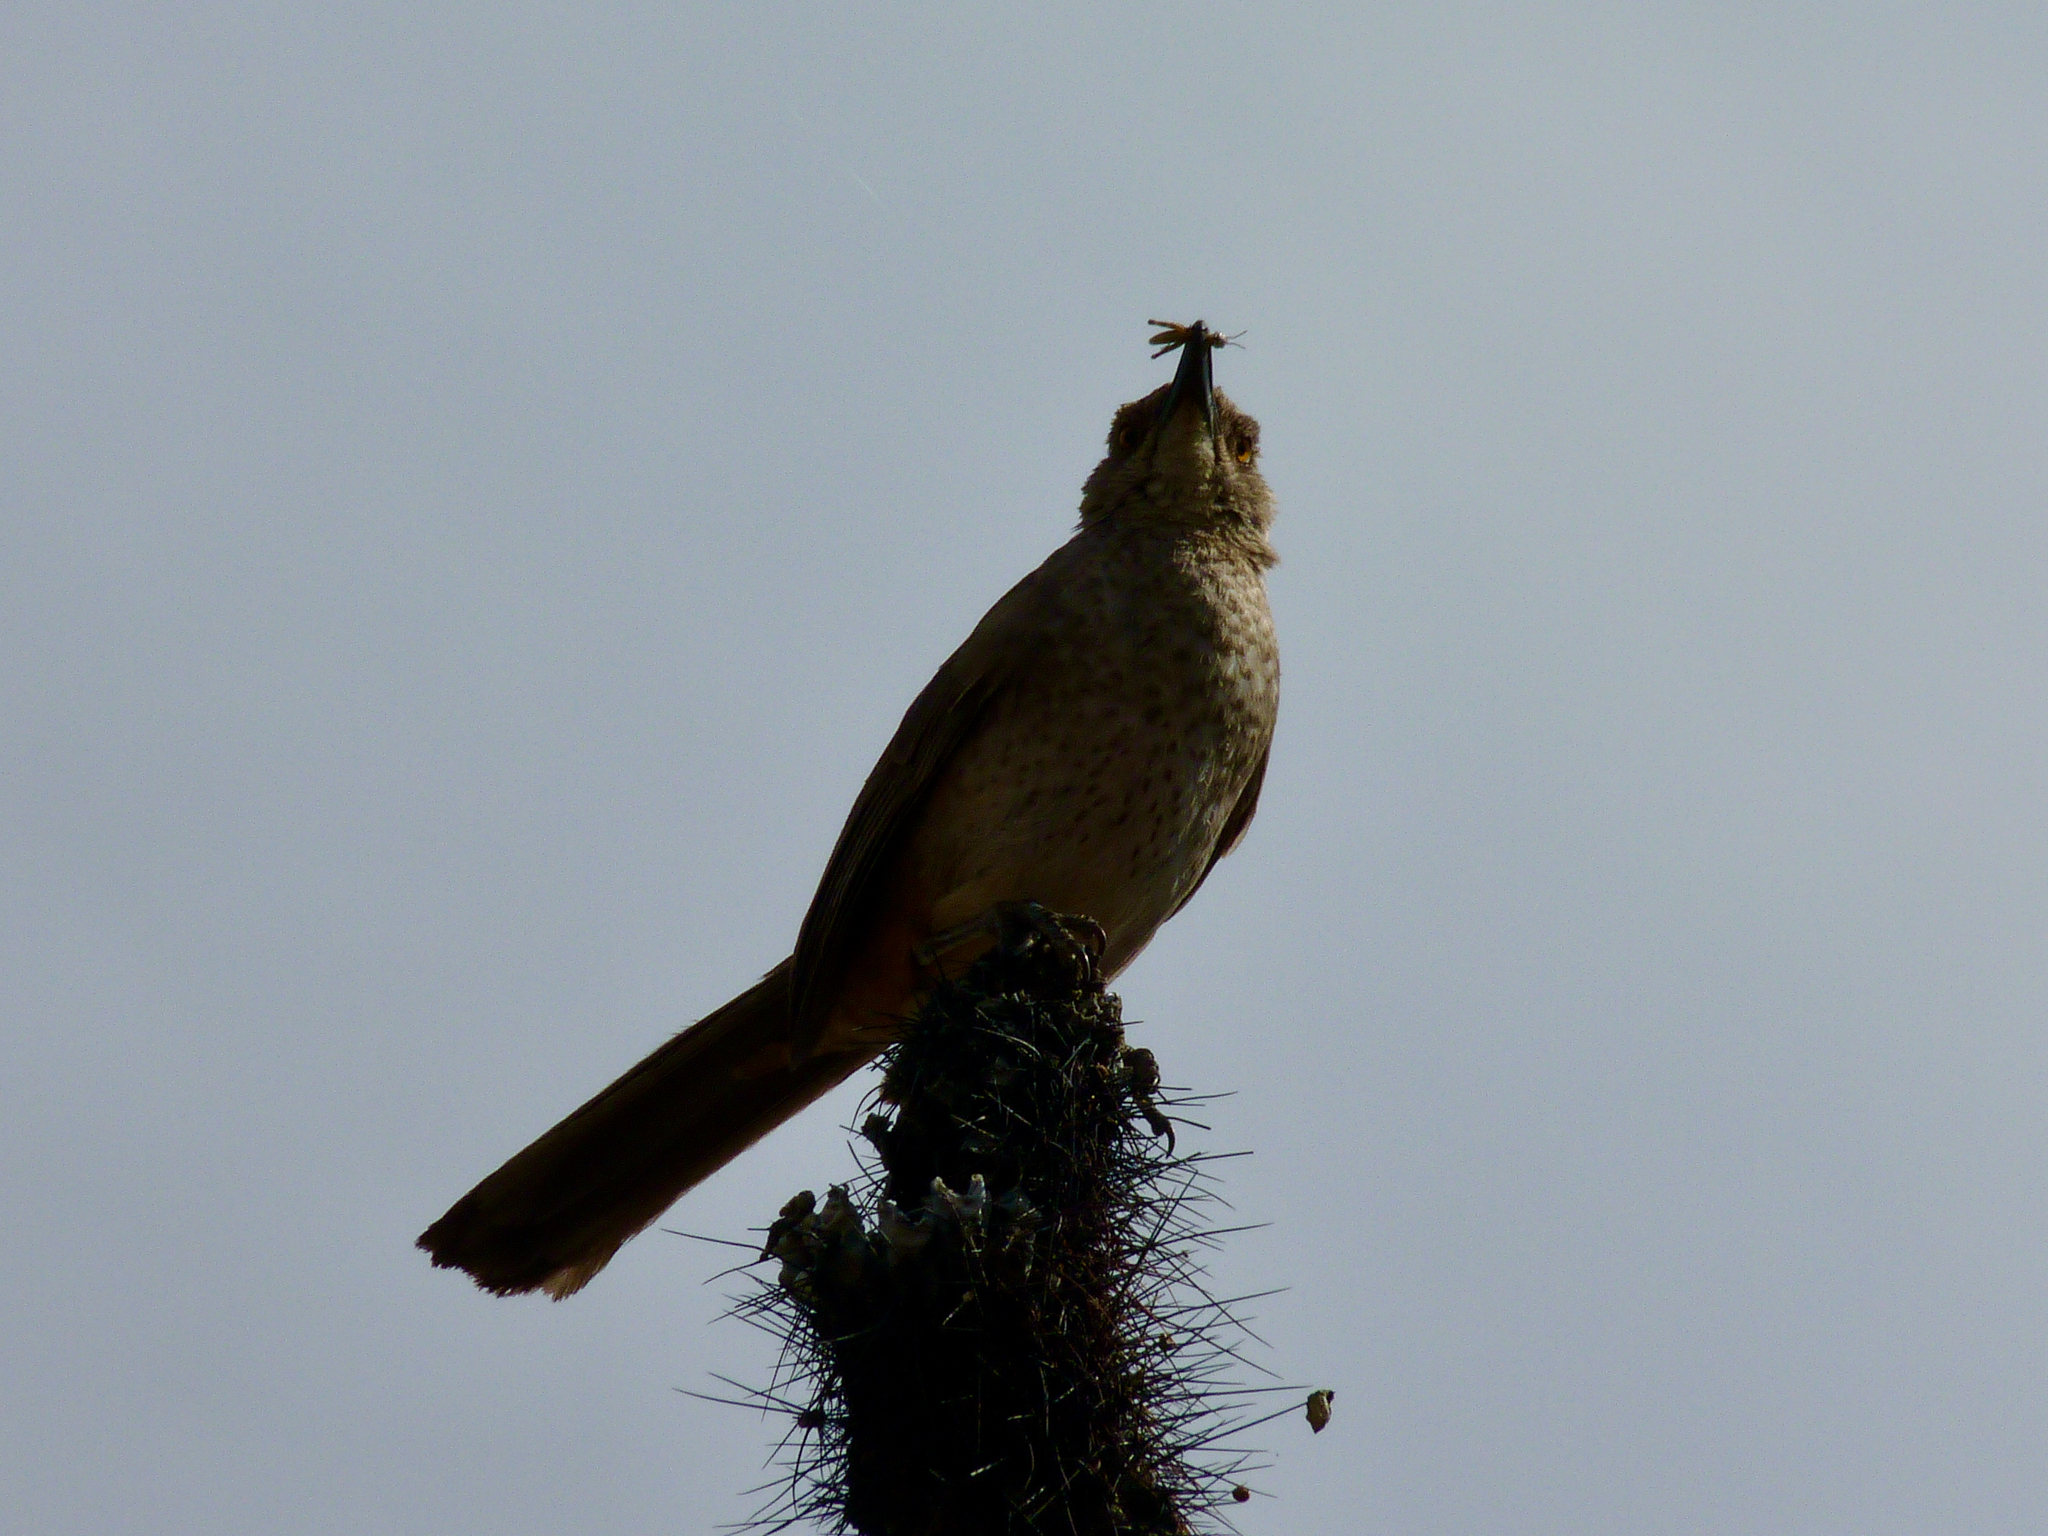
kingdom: Animalia
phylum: Chordata
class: Aves
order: Passeriformes
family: Mimidae
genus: Toxostoma
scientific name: Toxostoma curvirostre
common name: Curve-billed thrasher
